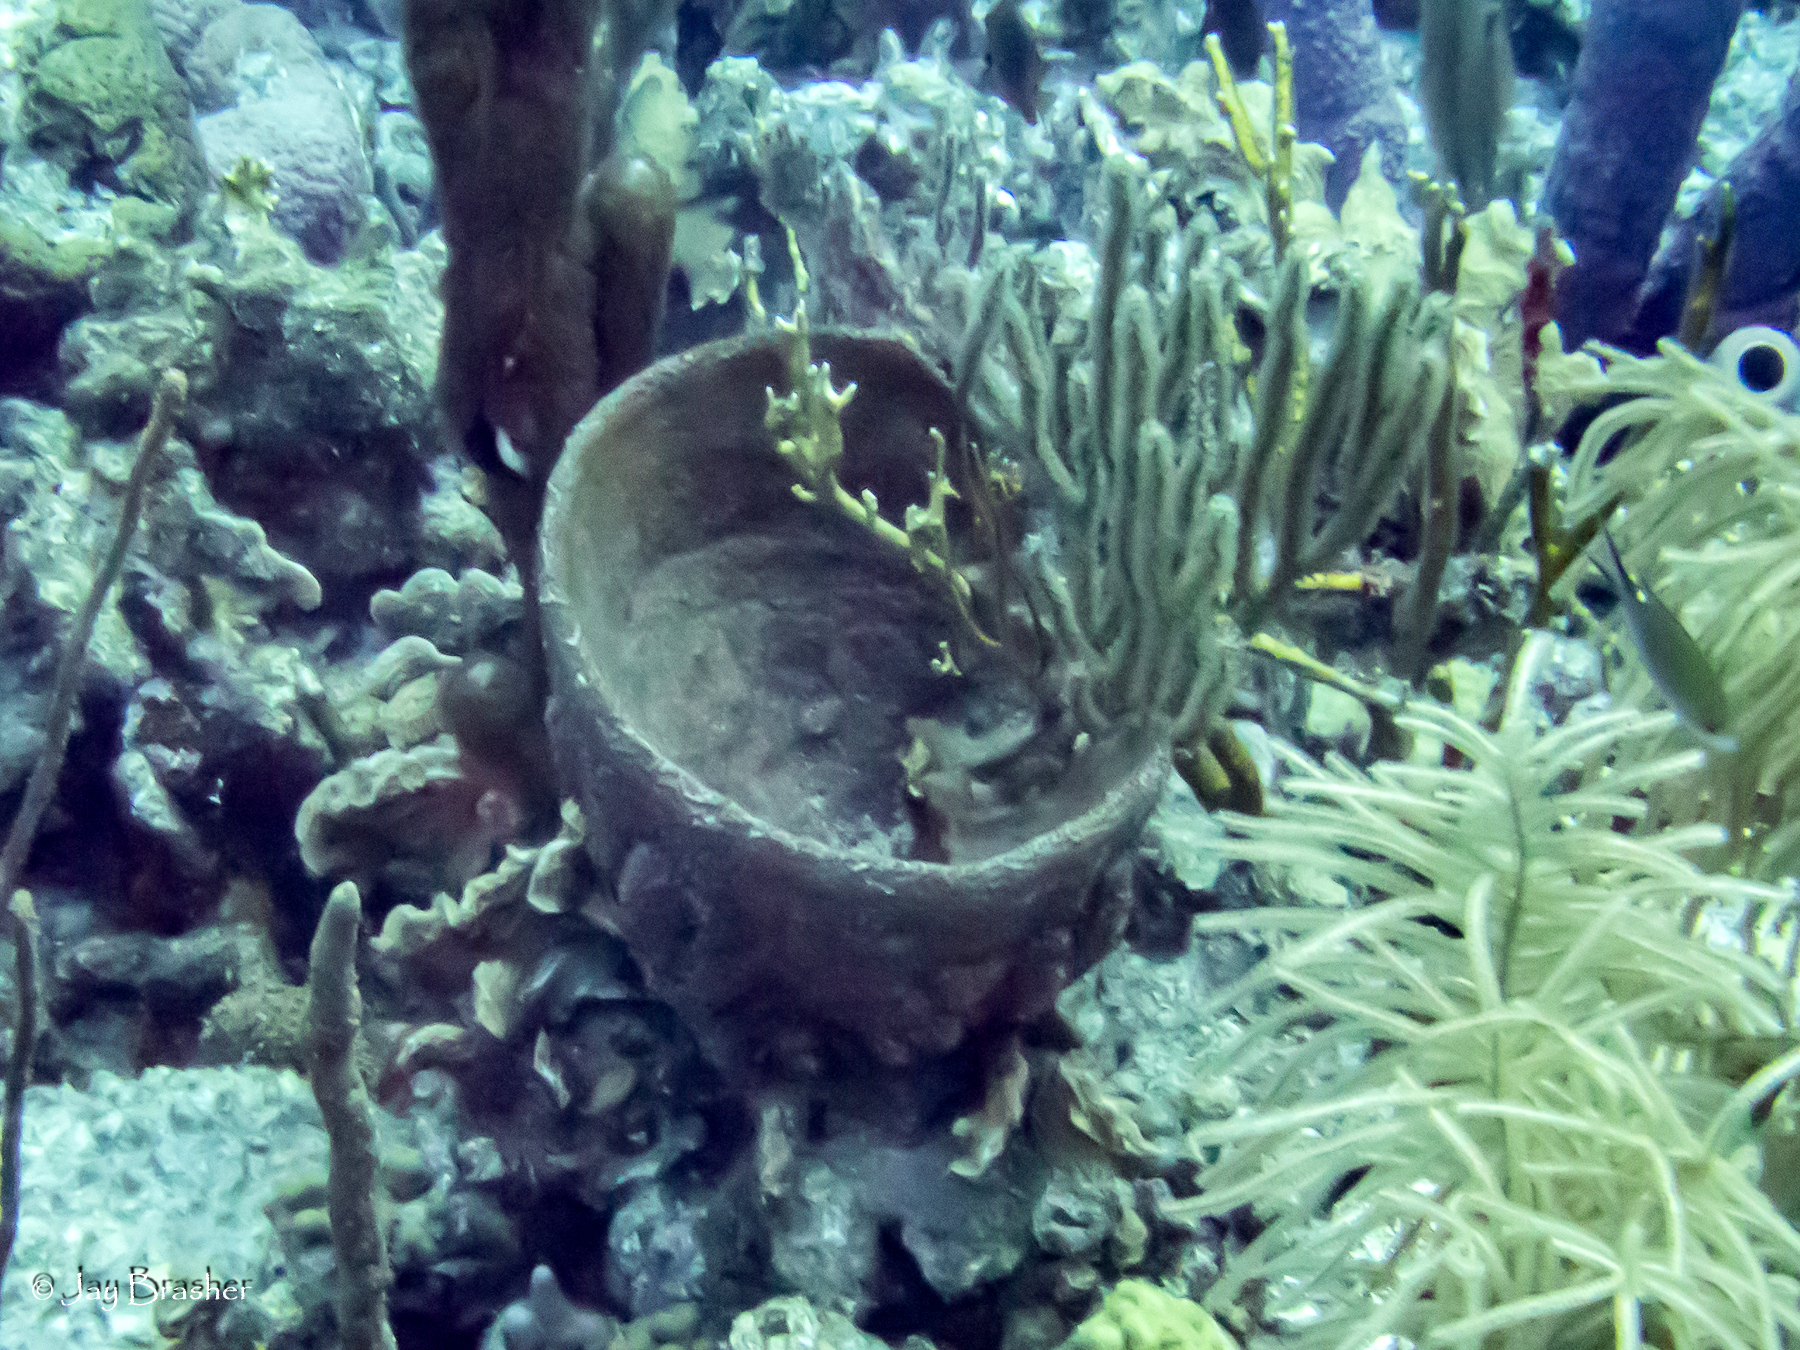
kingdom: Animalia
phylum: Porifera
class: Demospongiae
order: Dictyoceratida
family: Irciniidae
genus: Ircinia
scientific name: Ircinia campana
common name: Vase sponge
